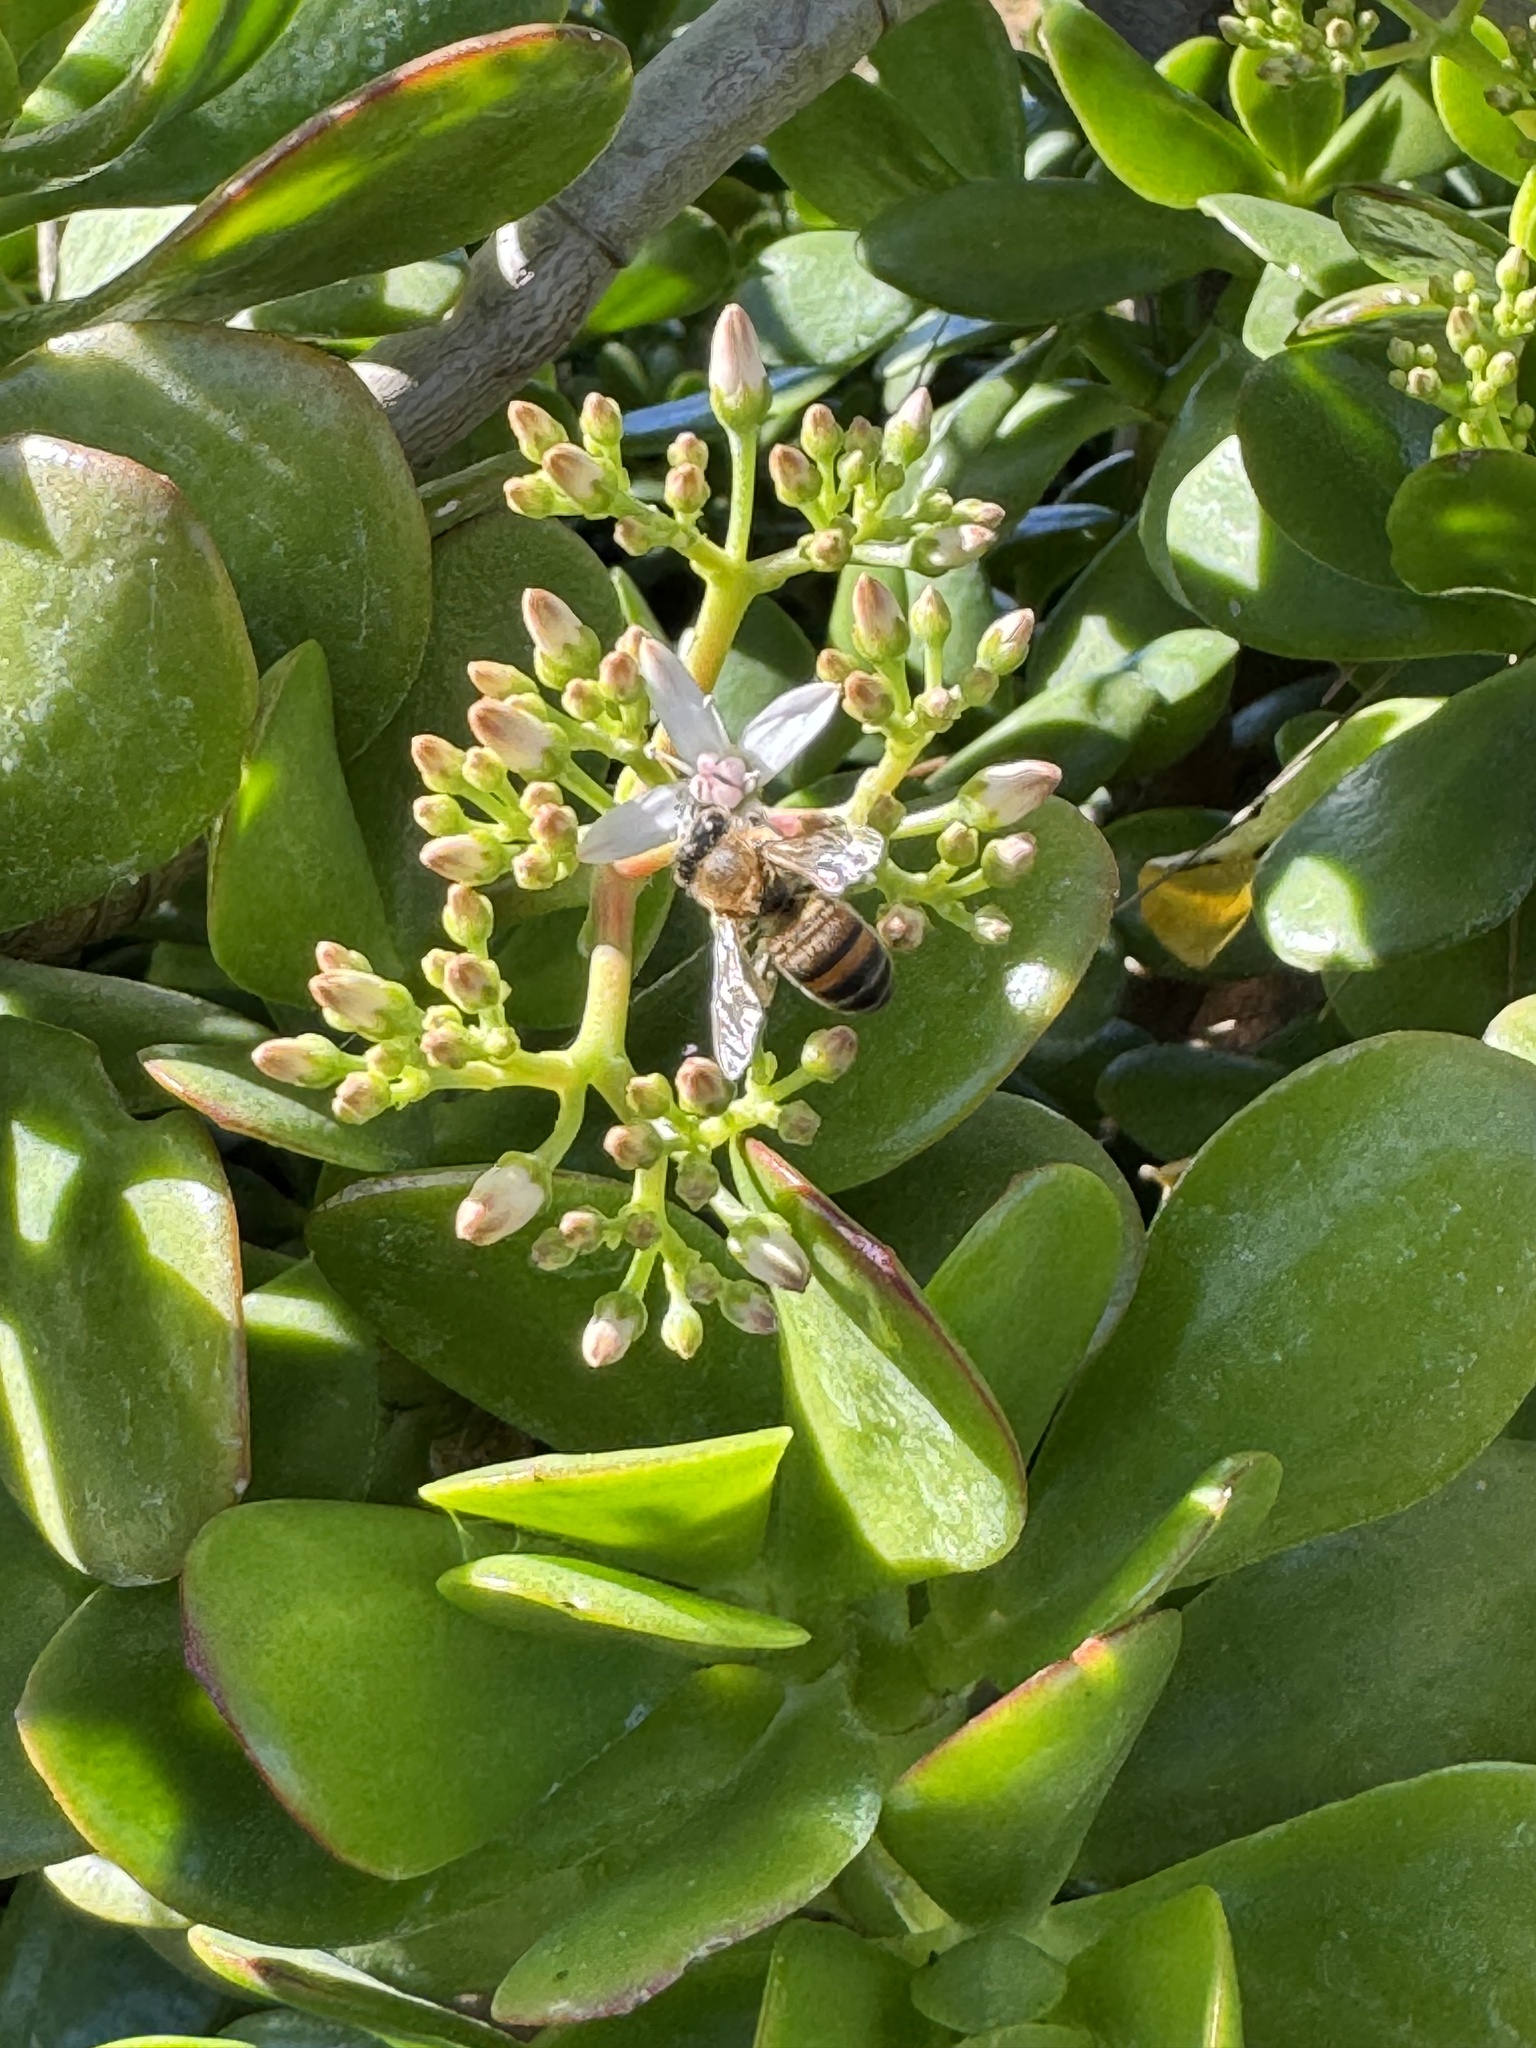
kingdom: Animalia
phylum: Arthropoda
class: Insecta
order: Hymenoptera
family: Apidae
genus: Apis
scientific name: Apis mellifera
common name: Honey bee
